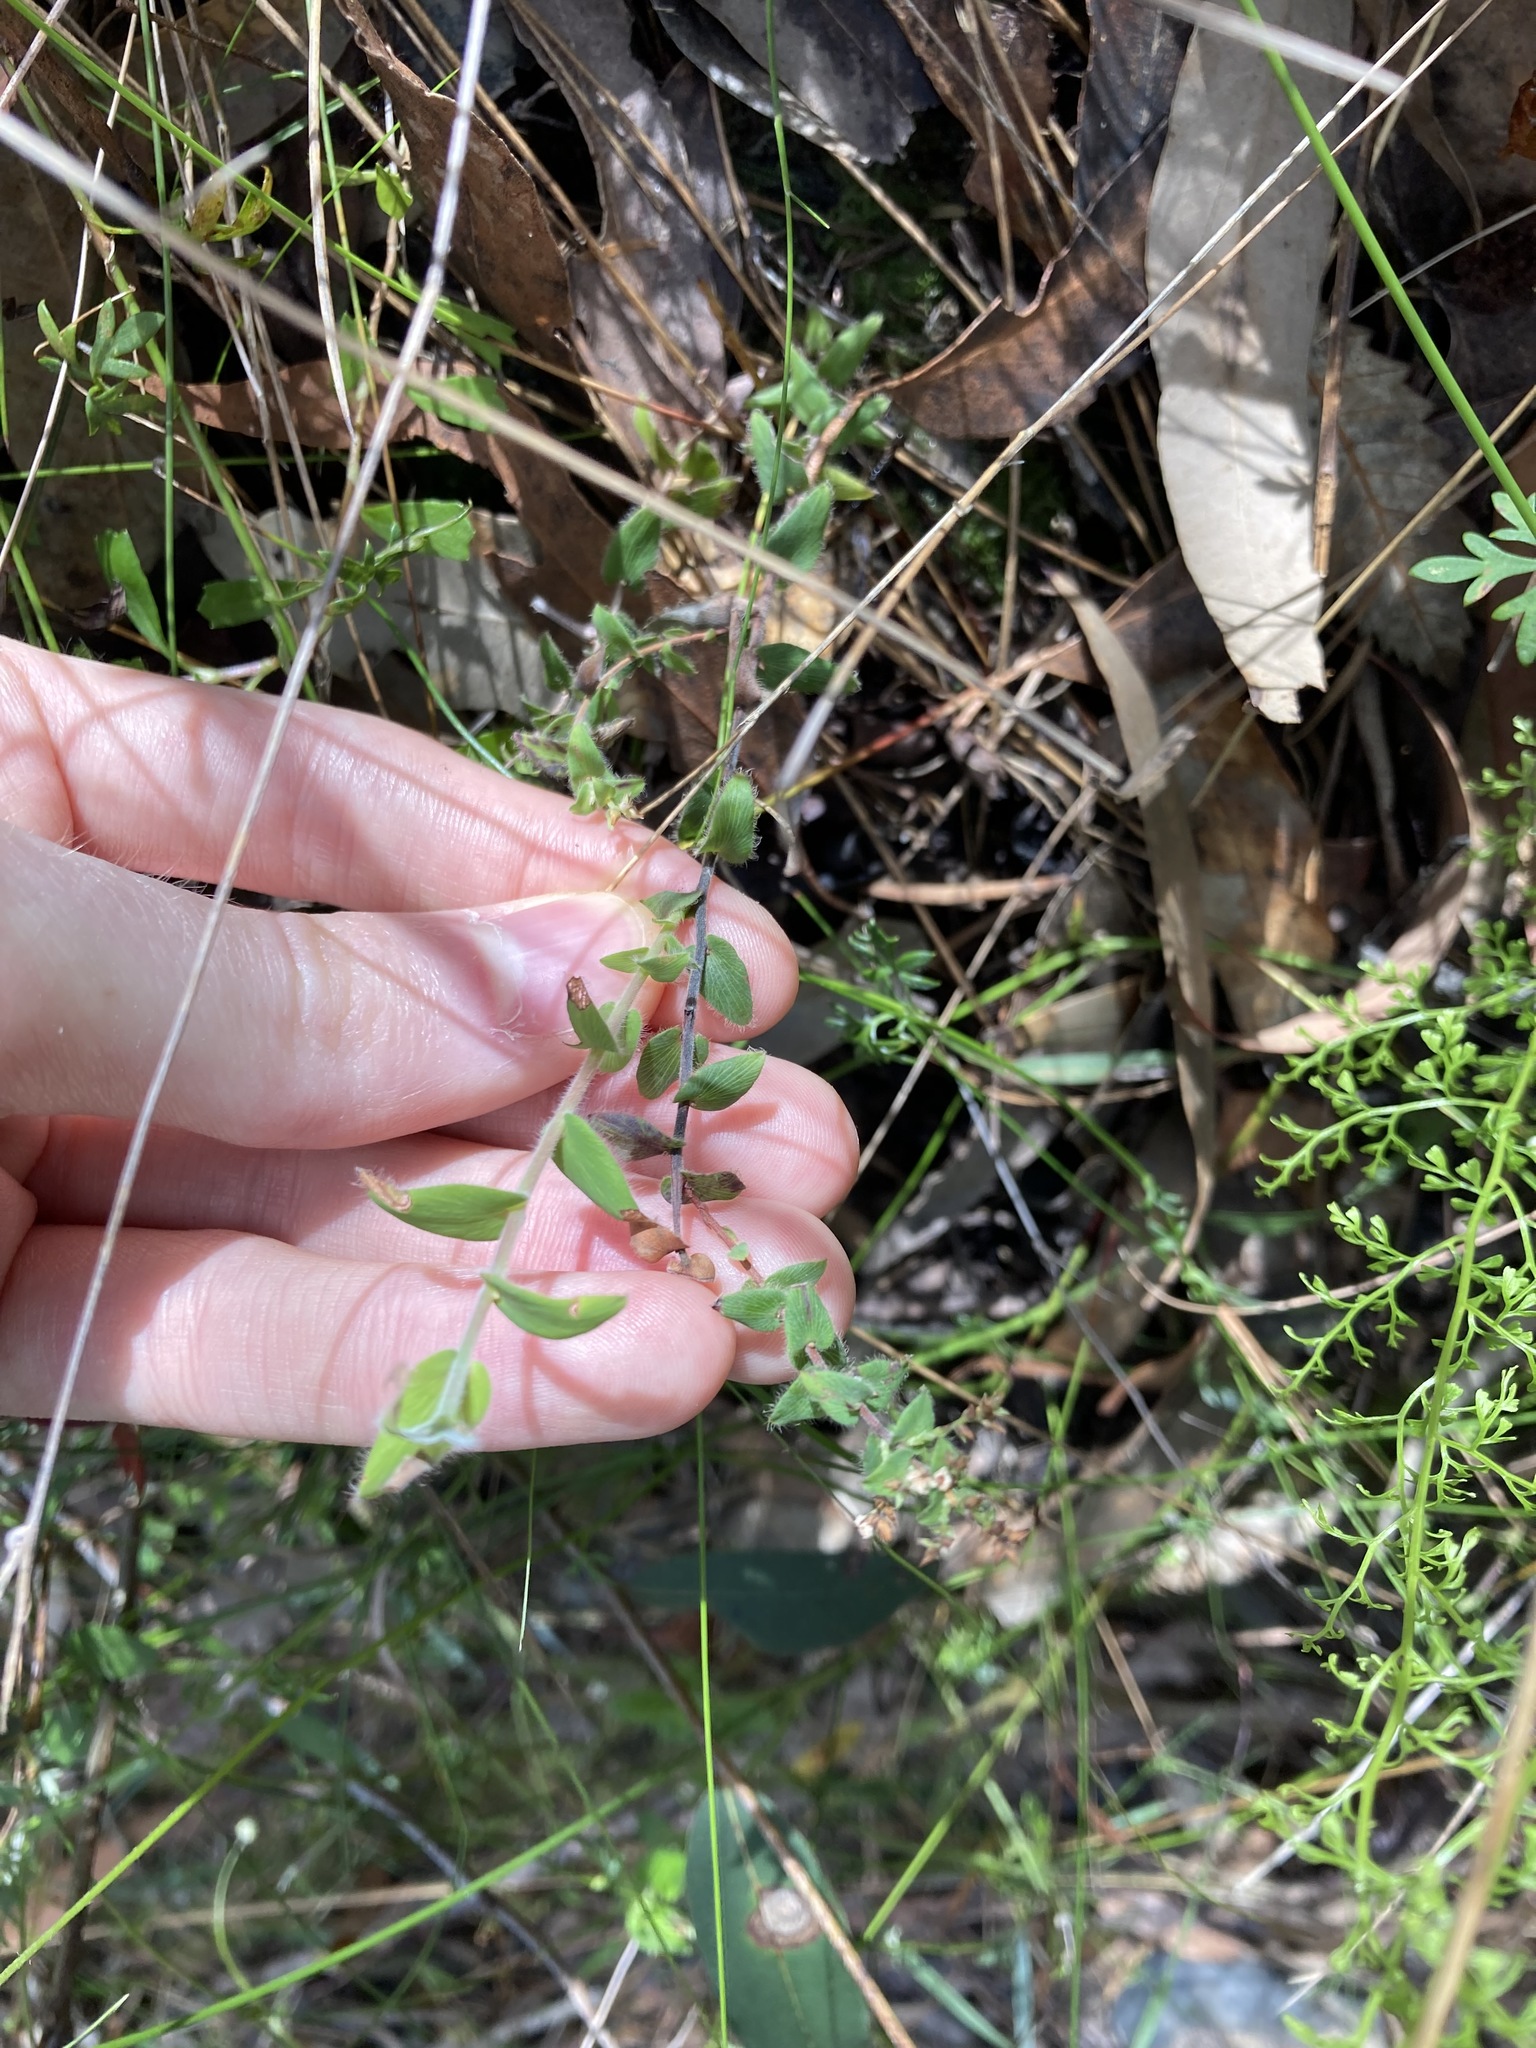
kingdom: Plantae
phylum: Tracheophyta
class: Magnoliopsida
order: Ericales
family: Ericaceae
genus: Leucopogon
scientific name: Leucopogon amplexicaulis
